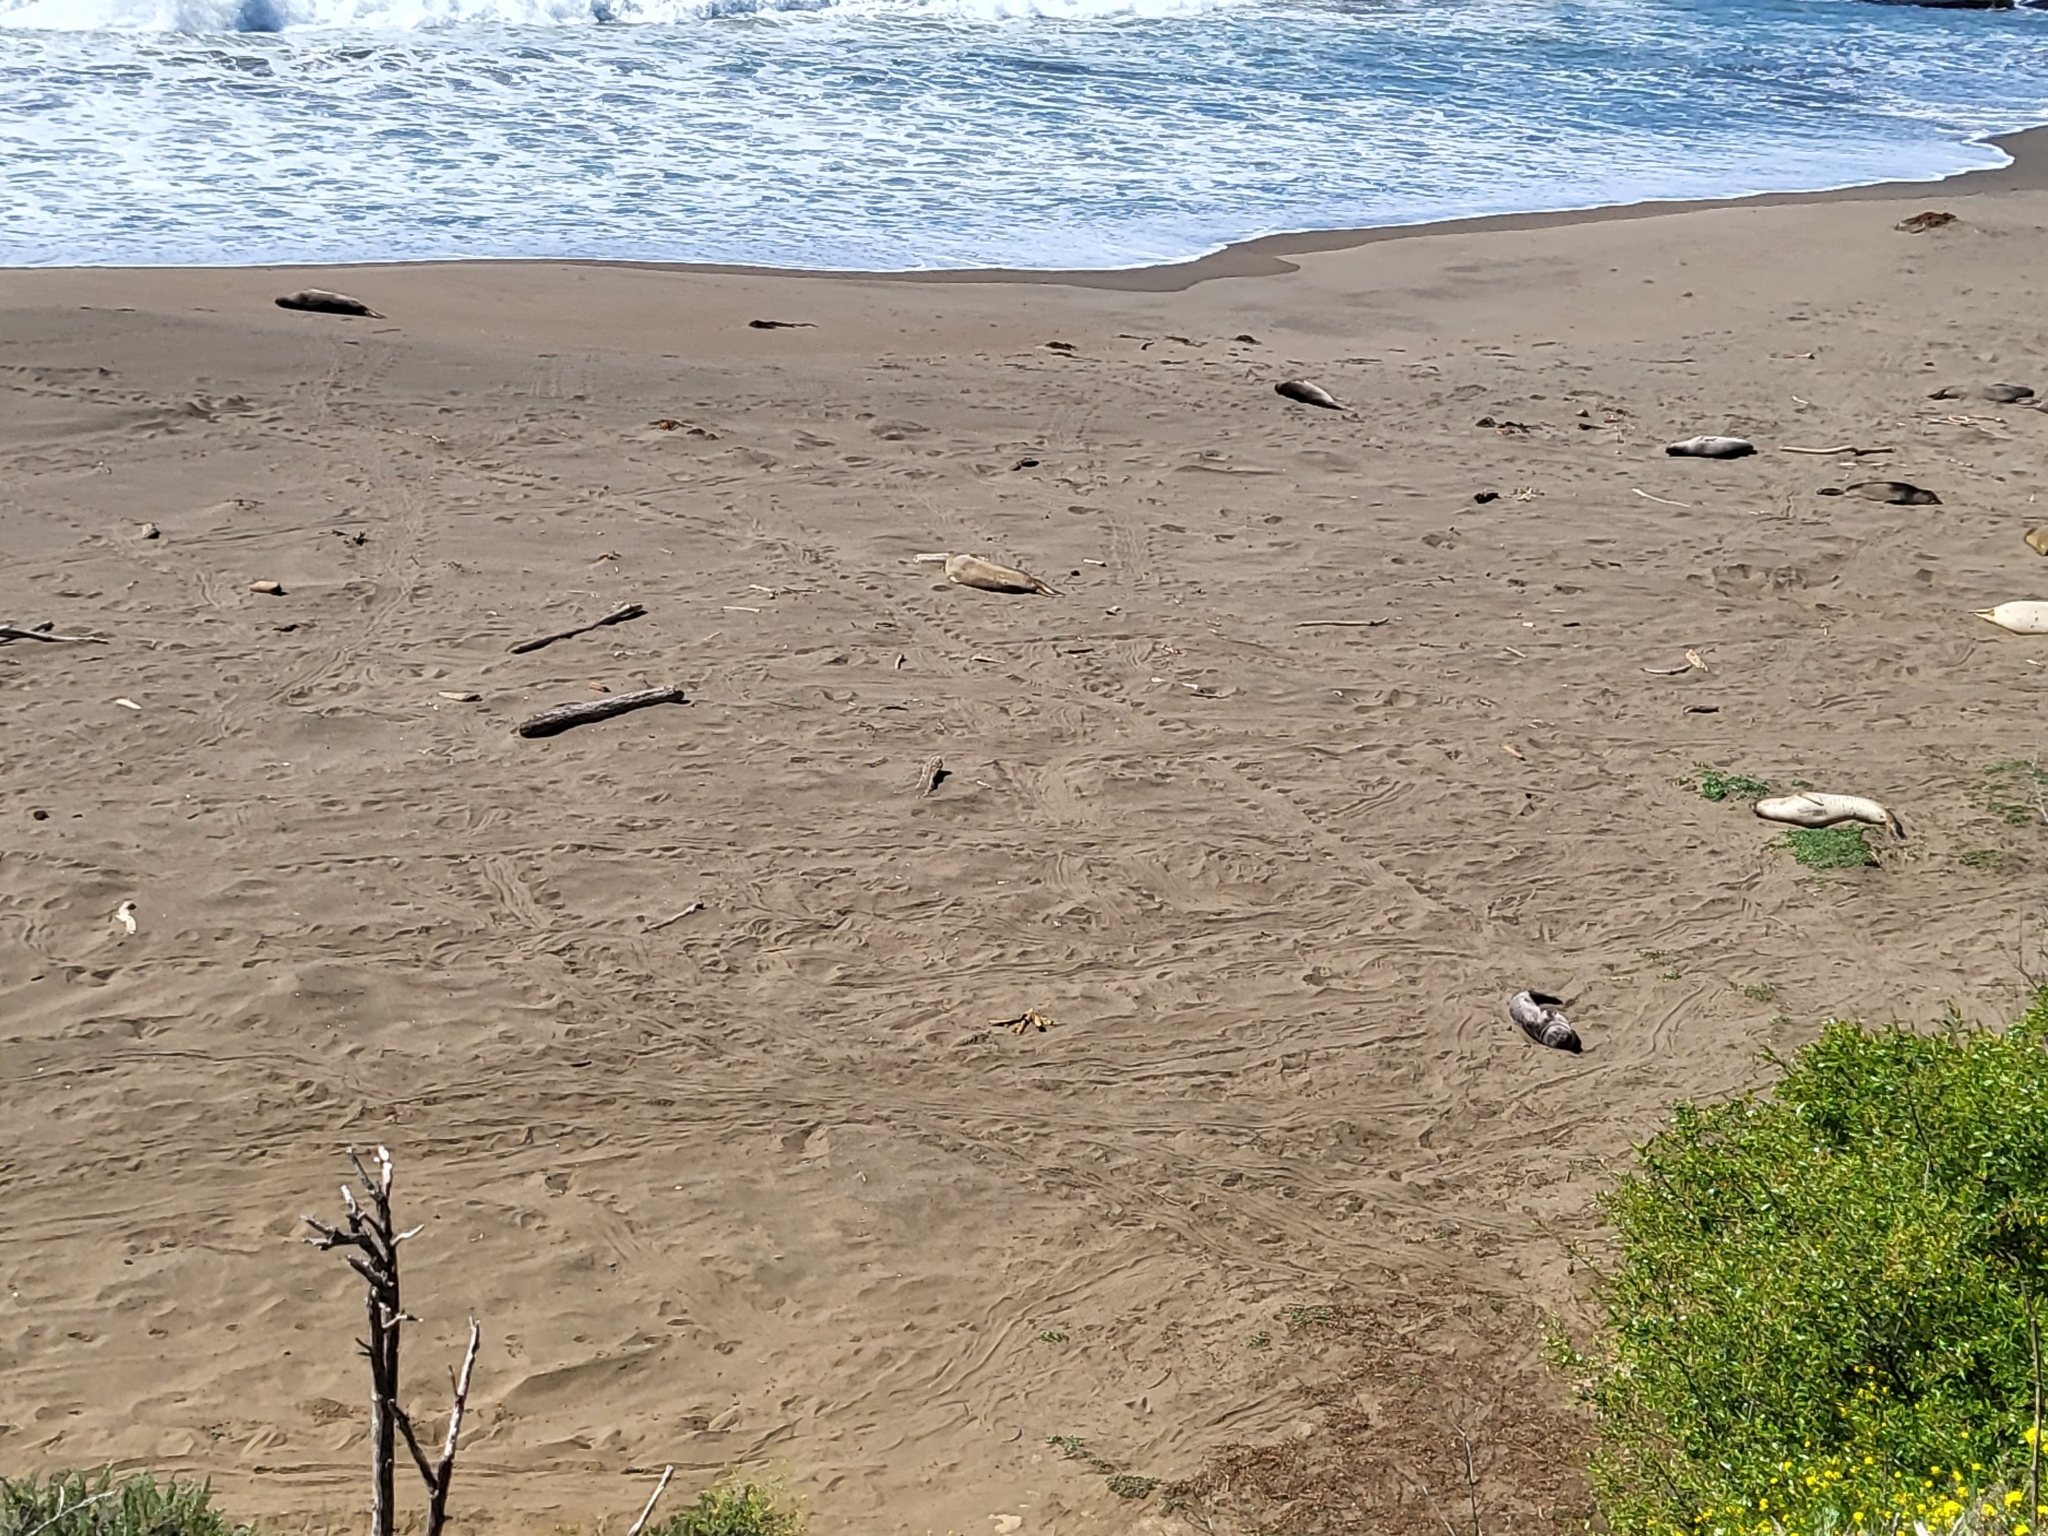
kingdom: Animalia
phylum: Chordata
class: Mammalia
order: Carnivora
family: Phocidae
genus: Mirounga
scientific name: Mirounga angustirostris
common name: Northern elephant seal
